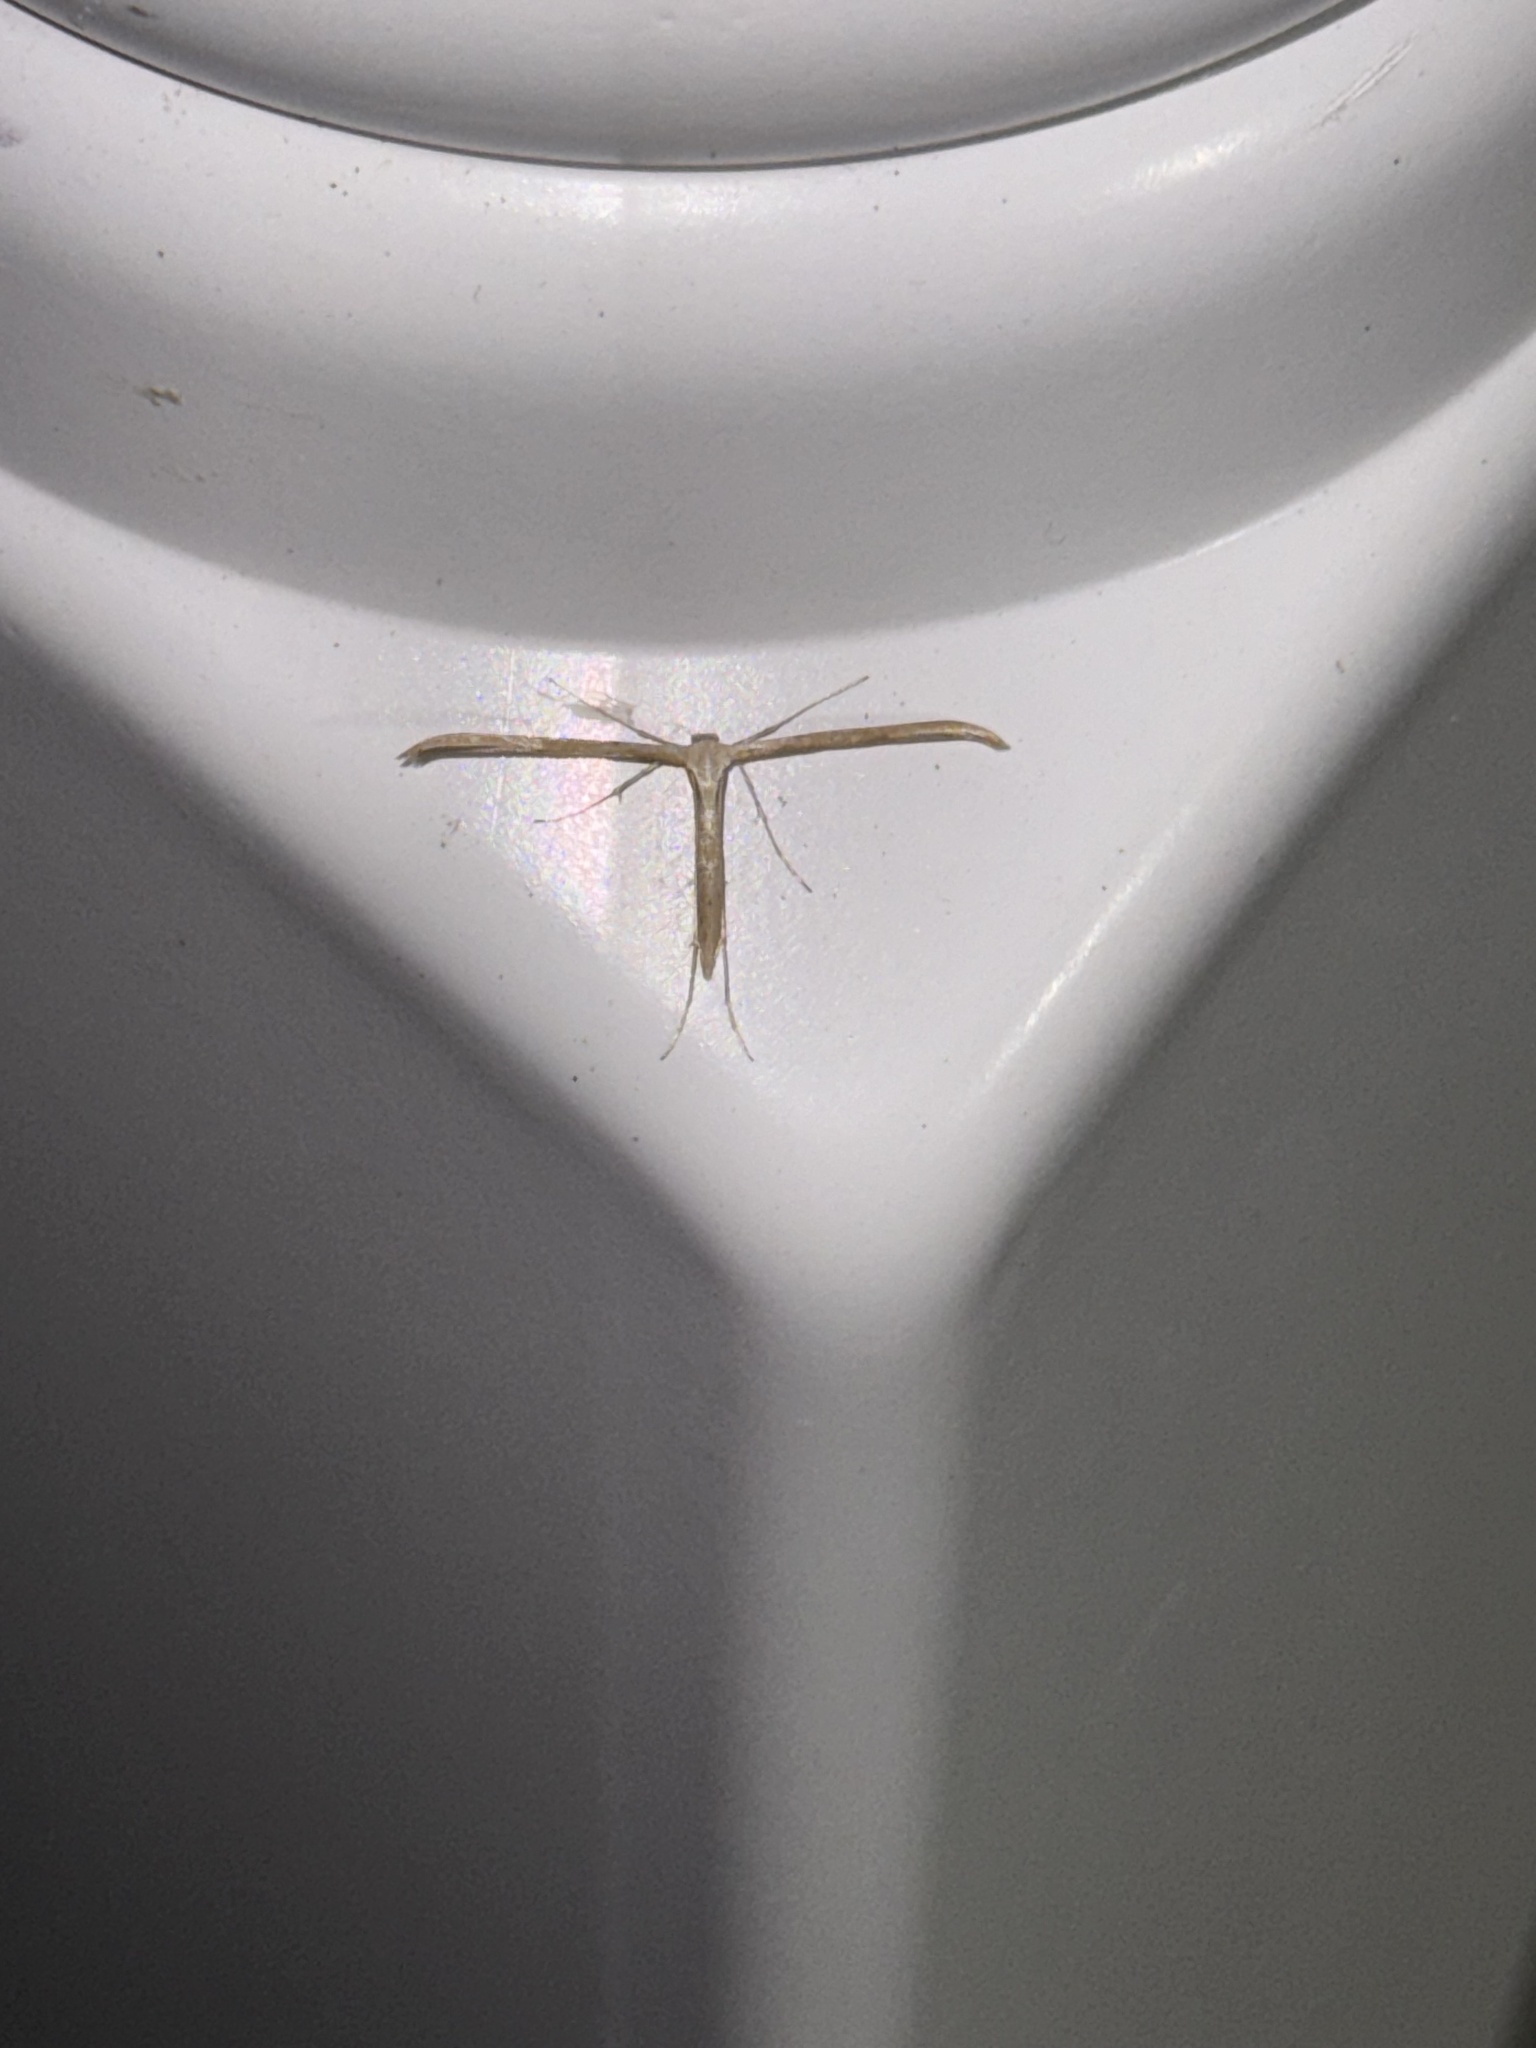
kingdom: Animalia
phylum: Arthropoda
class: Insecta
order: Lepidoptera
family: Pterophoridae
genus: Emmelina
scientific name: Emmelina monodactyla
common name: Common plume
